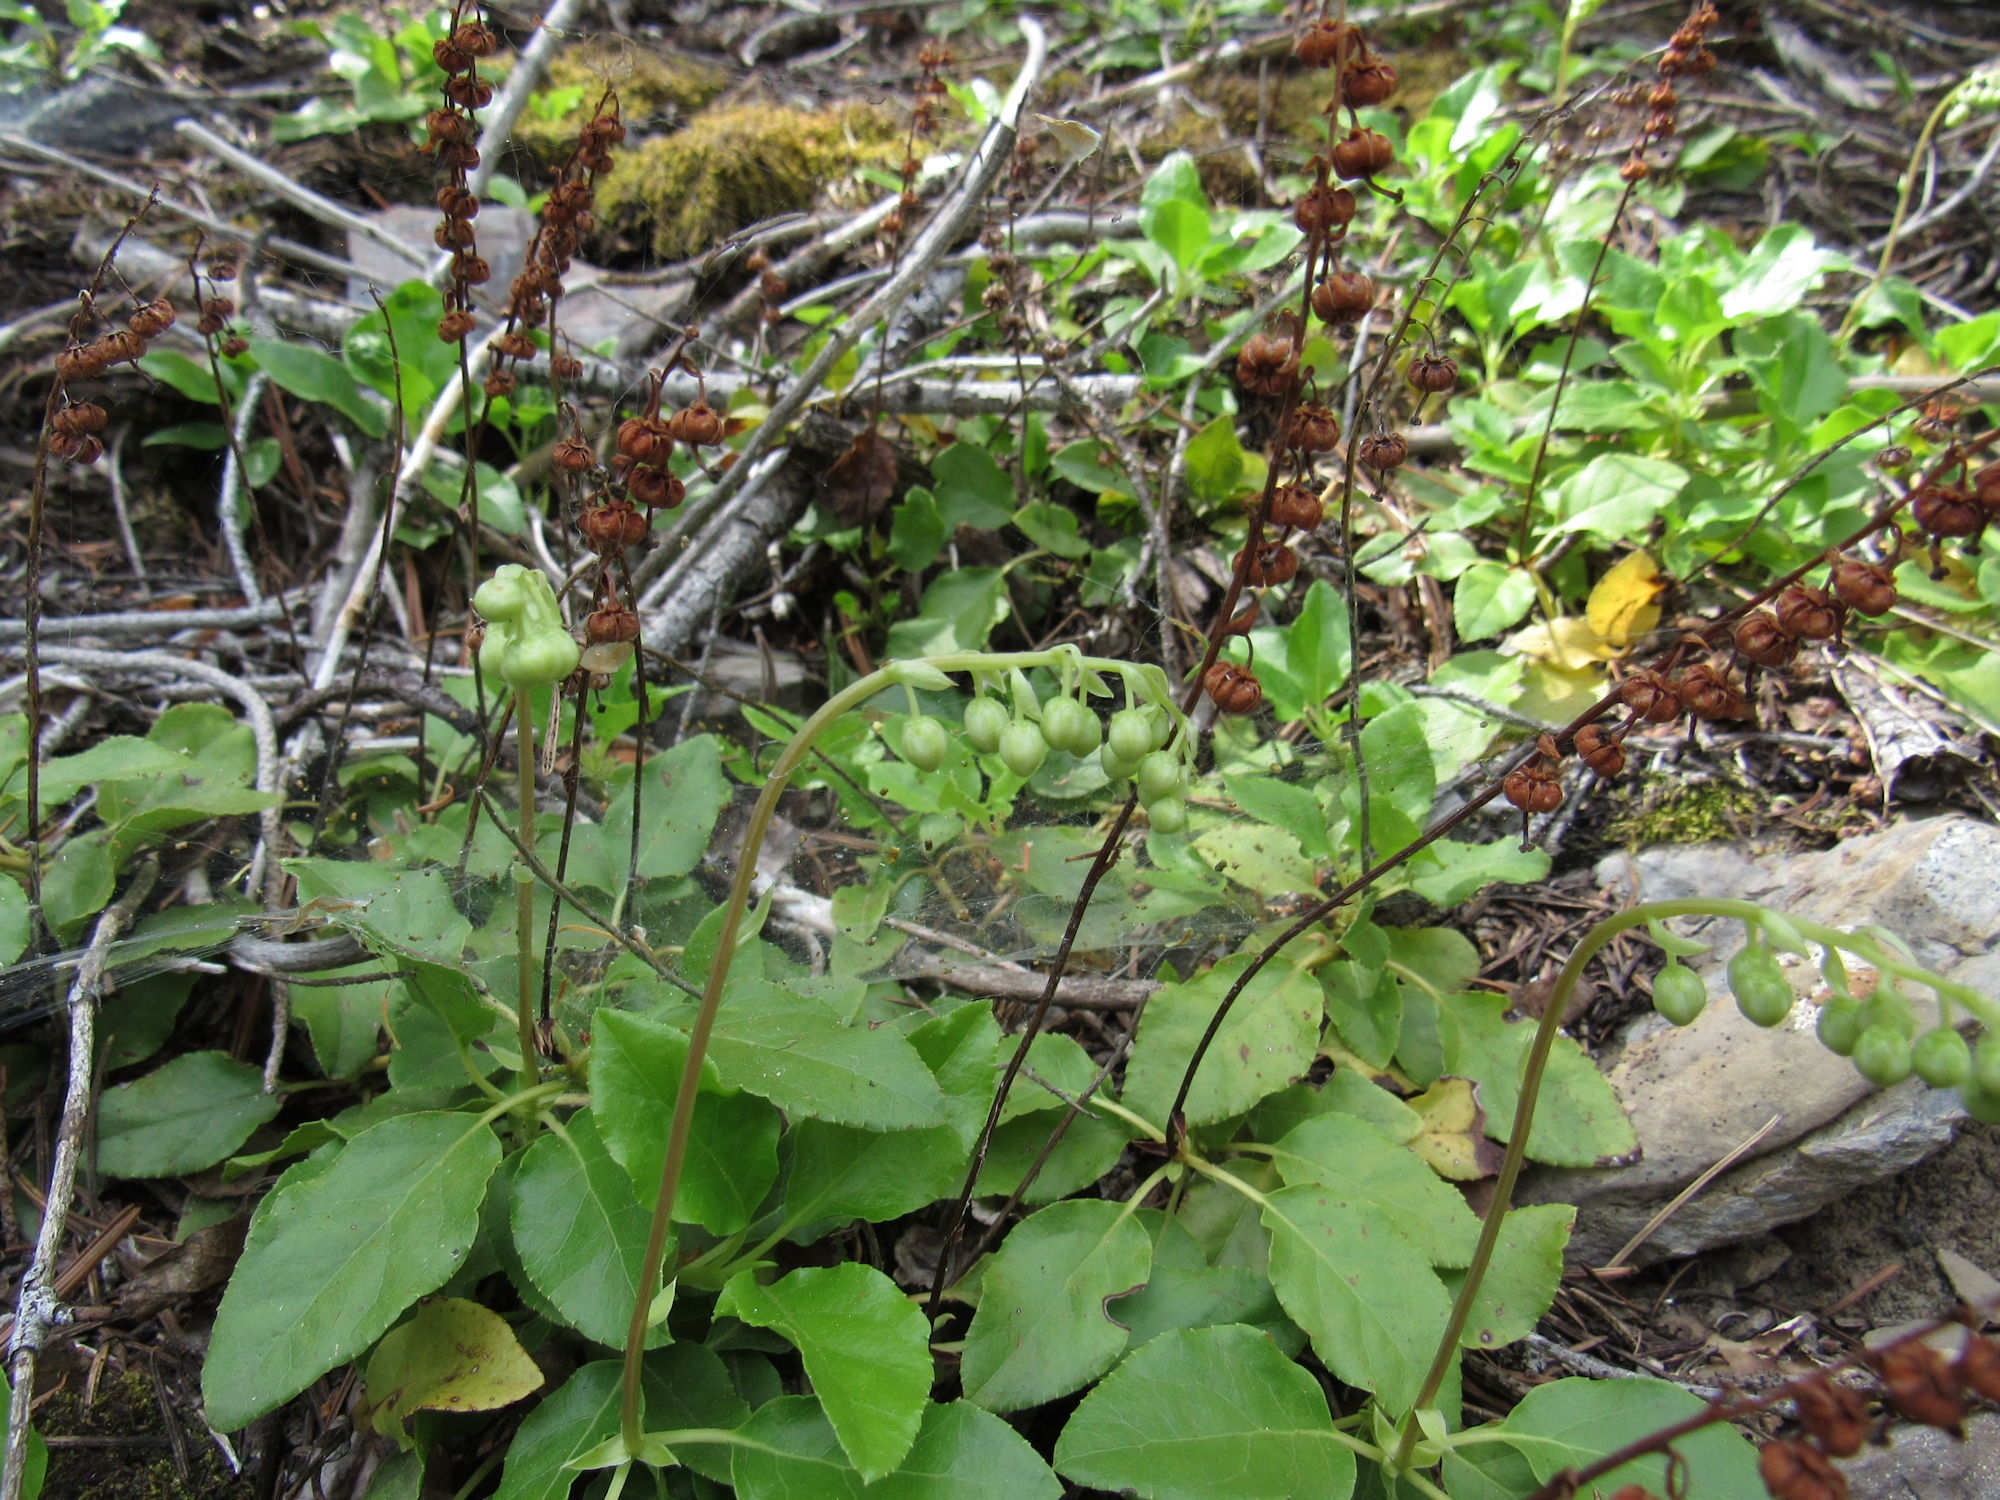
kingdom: Plantae
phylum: Tracheophyta
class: Magnoliopsida
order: Ericales
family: Ericaceae
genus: Orthilia
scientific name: Orthilia secunda
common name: One-sided orthilia
